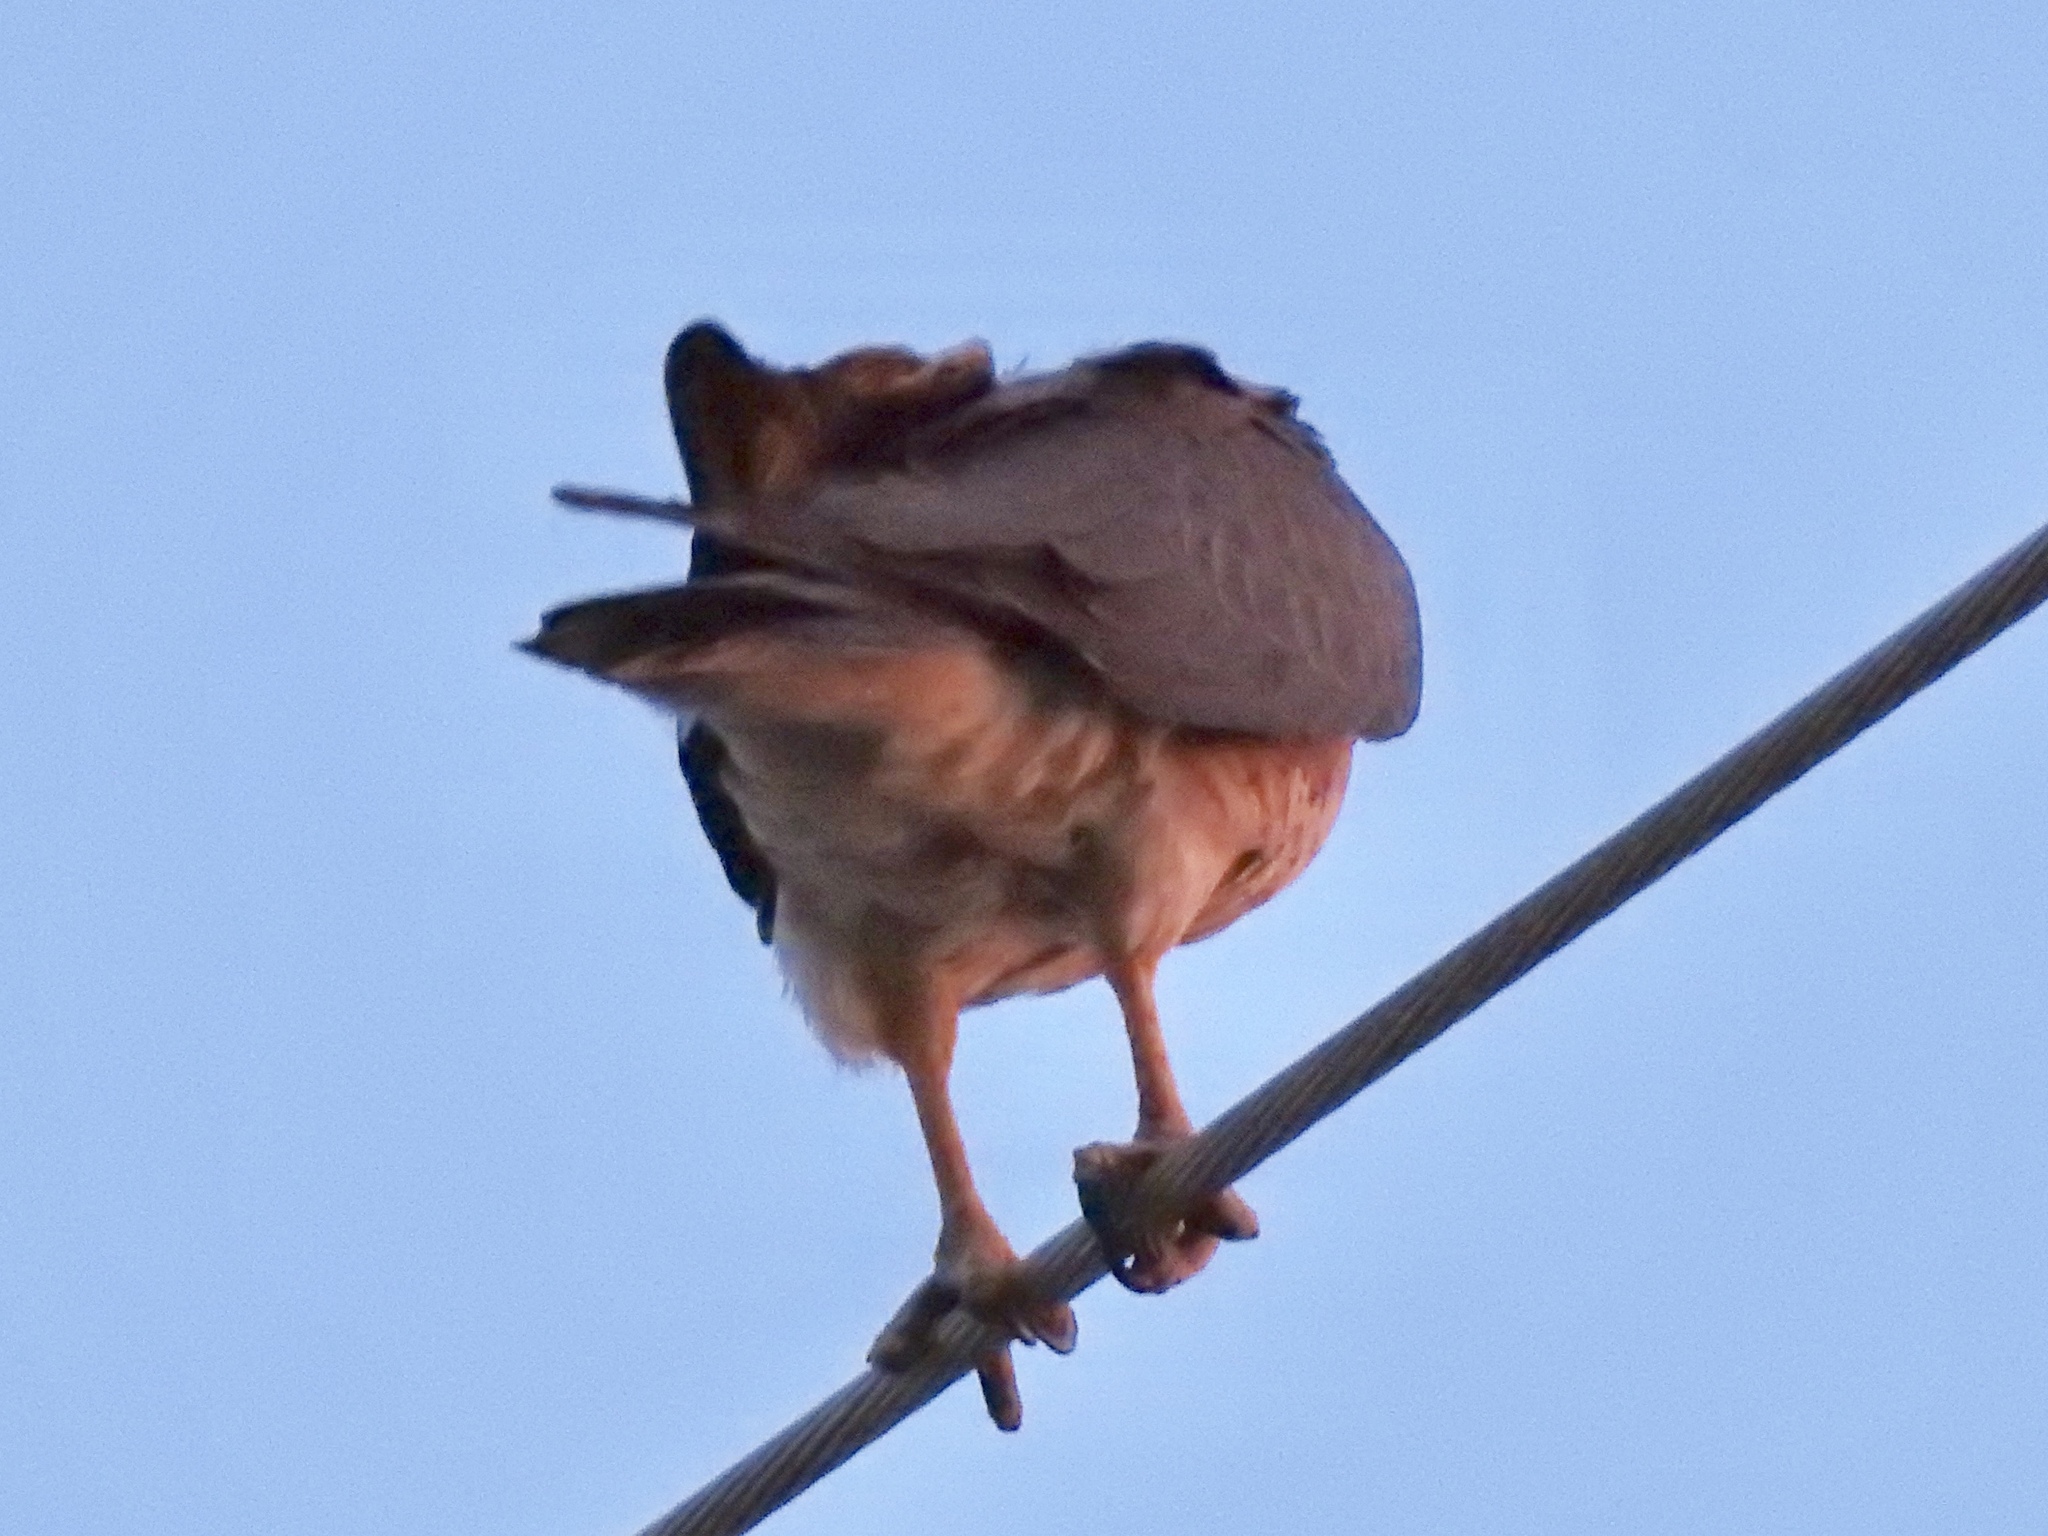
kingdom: Animalia
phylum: Chordata
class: Aves
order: Accipitriformes
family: Accipitridae
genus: Buteo
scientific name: Buteo swainsoni
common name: Swainson's hawk
